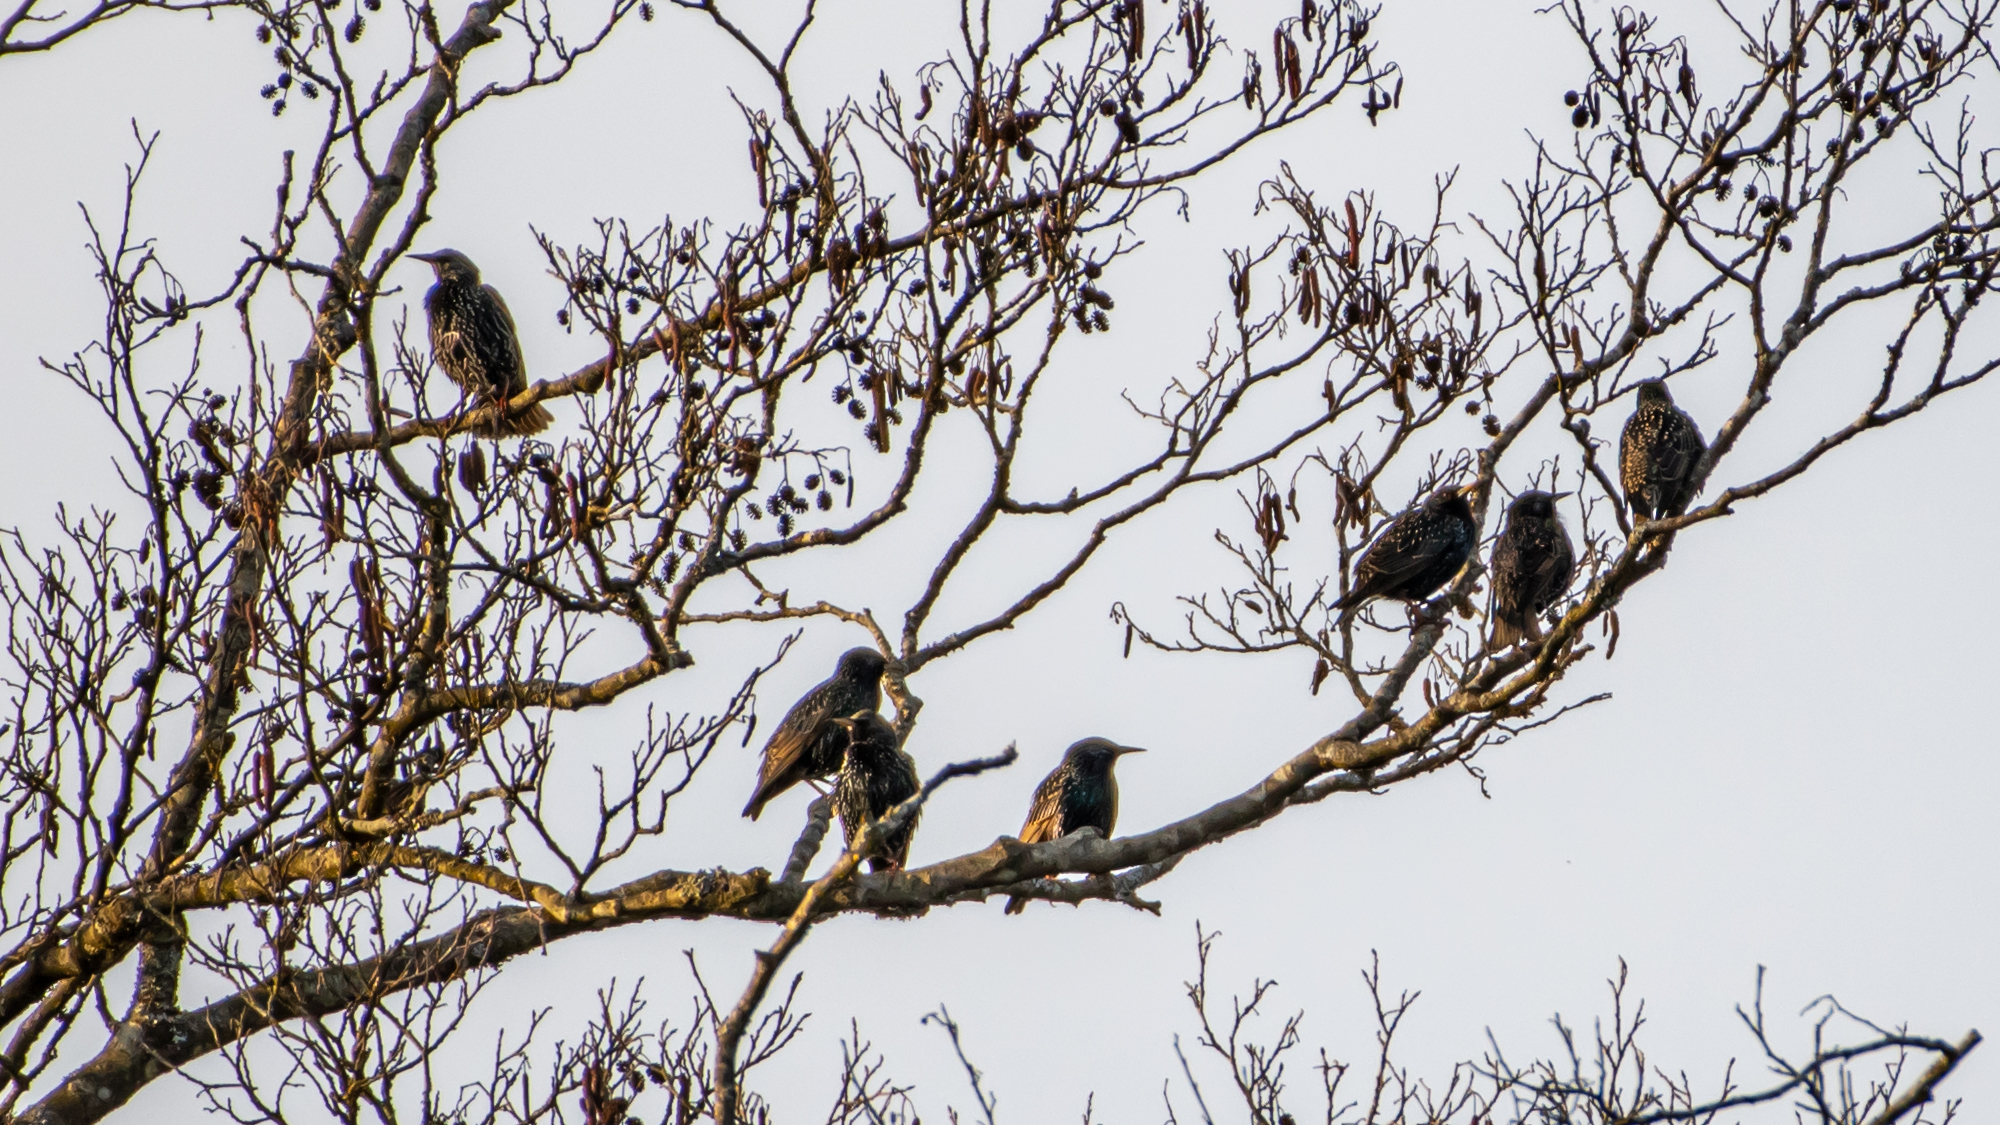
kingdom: Animalia
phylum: Chordata
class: Aves
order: Passeriformes
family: Sturnidae
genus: Sturnus
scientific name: Sturnus vulgaris
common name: Common starling
